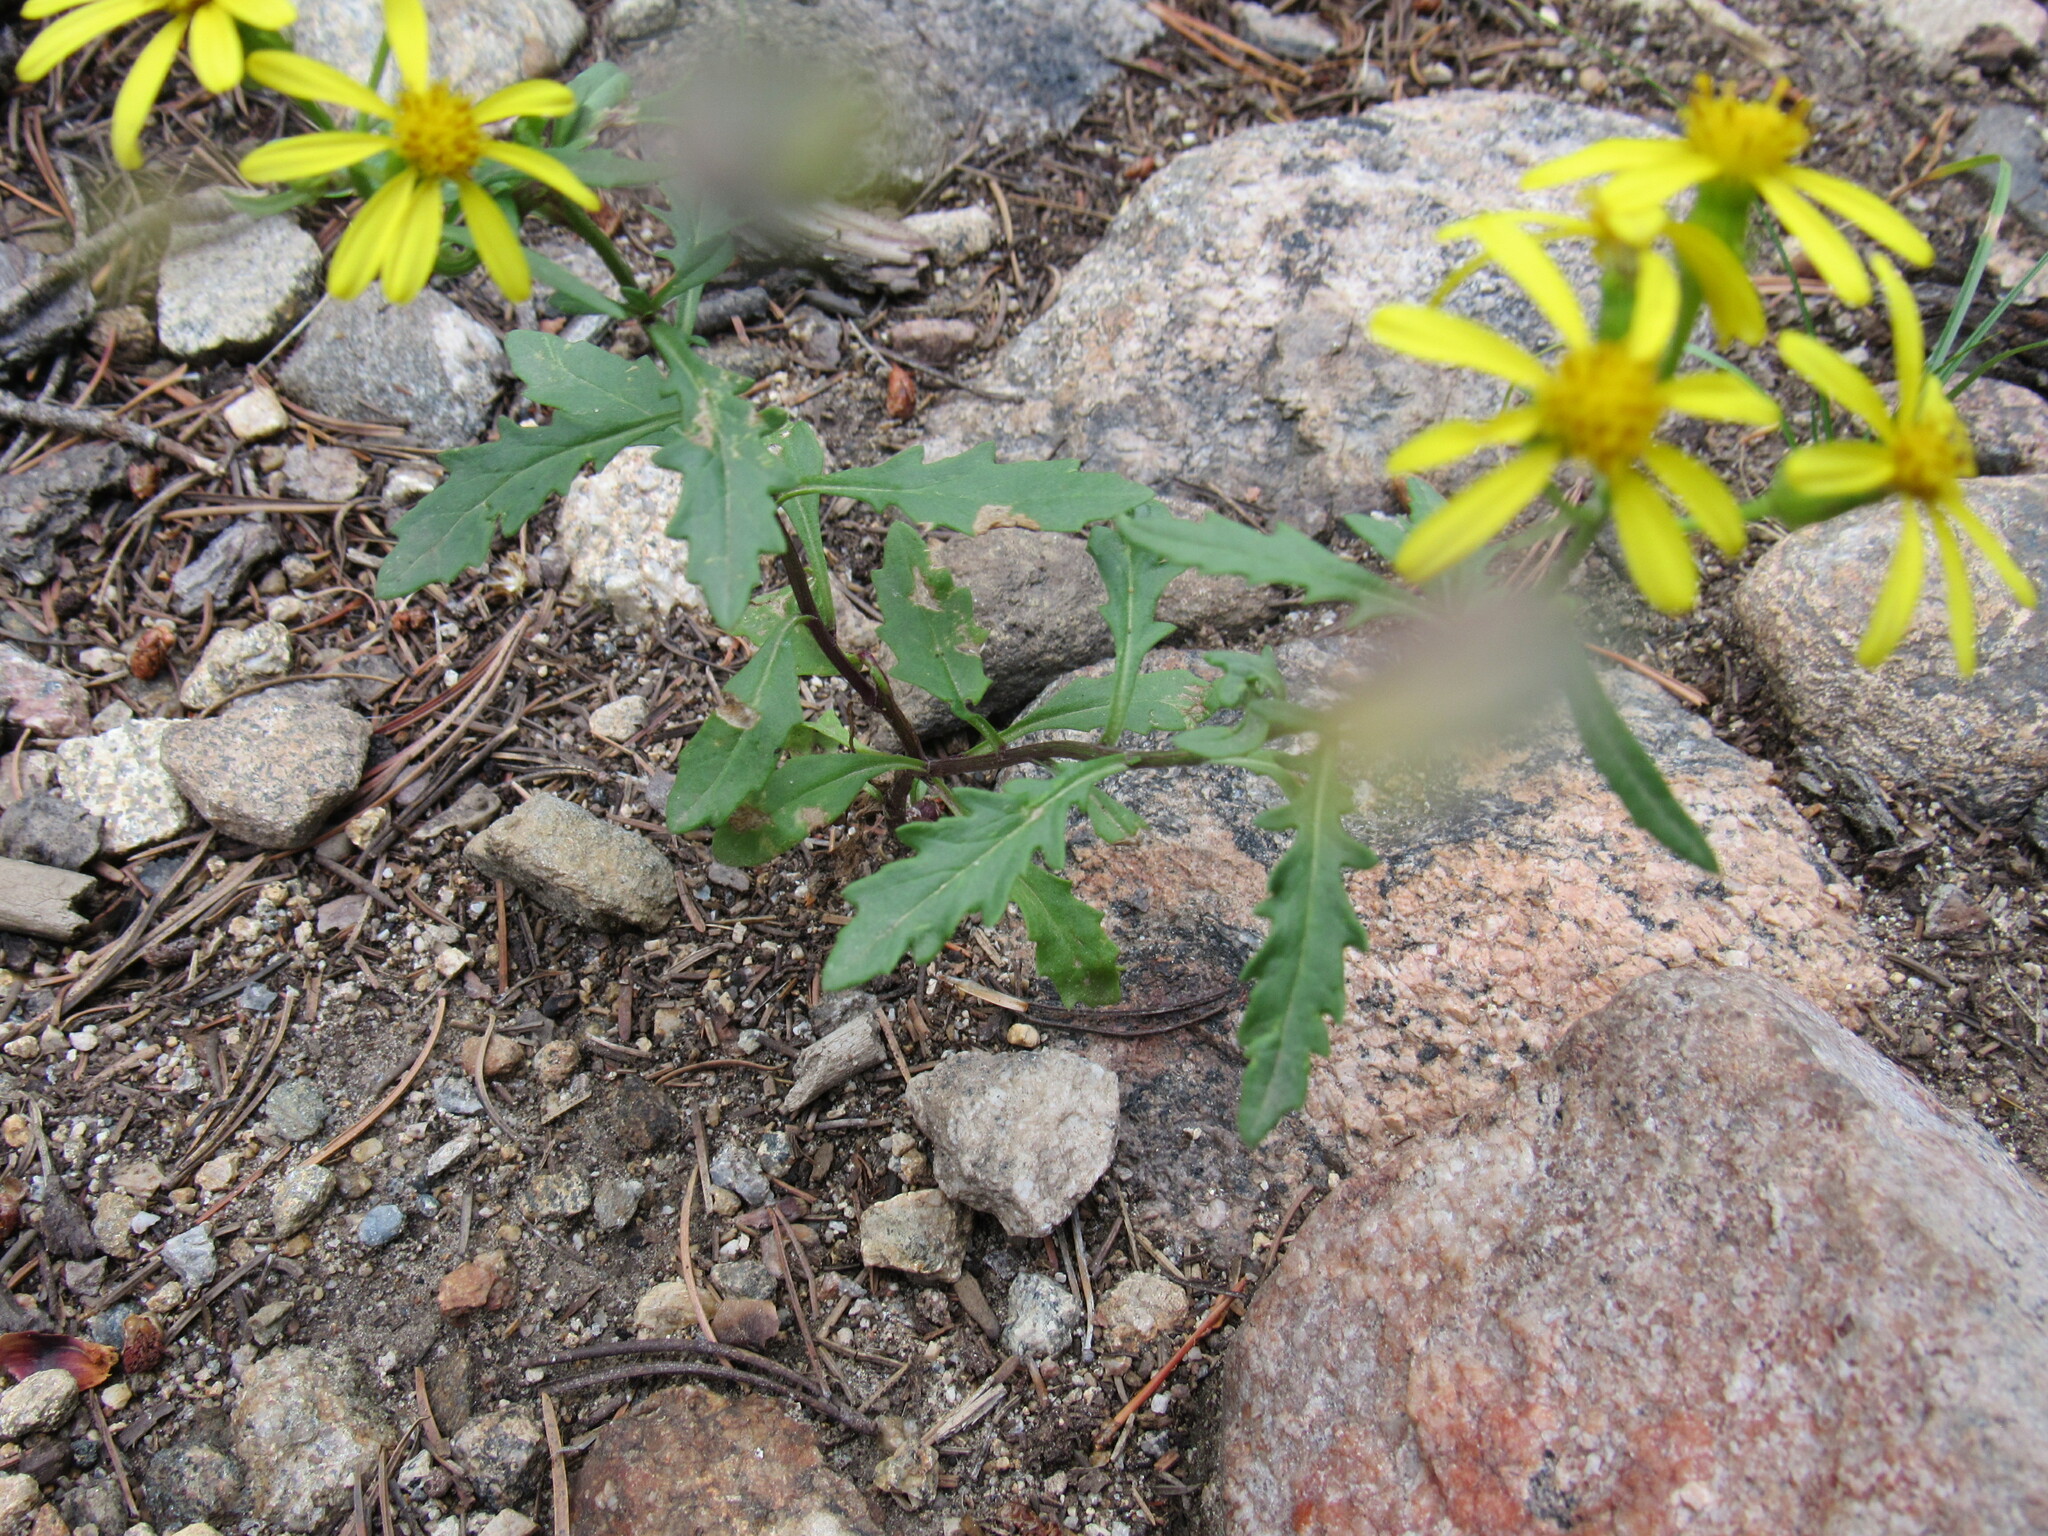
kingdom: Plantae
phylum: Tracheophyta
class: Magnoliopsida
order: Asterales
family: Asteraceae
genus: Senecio
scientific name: Senecio eremophilus
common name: Desert ragwort
